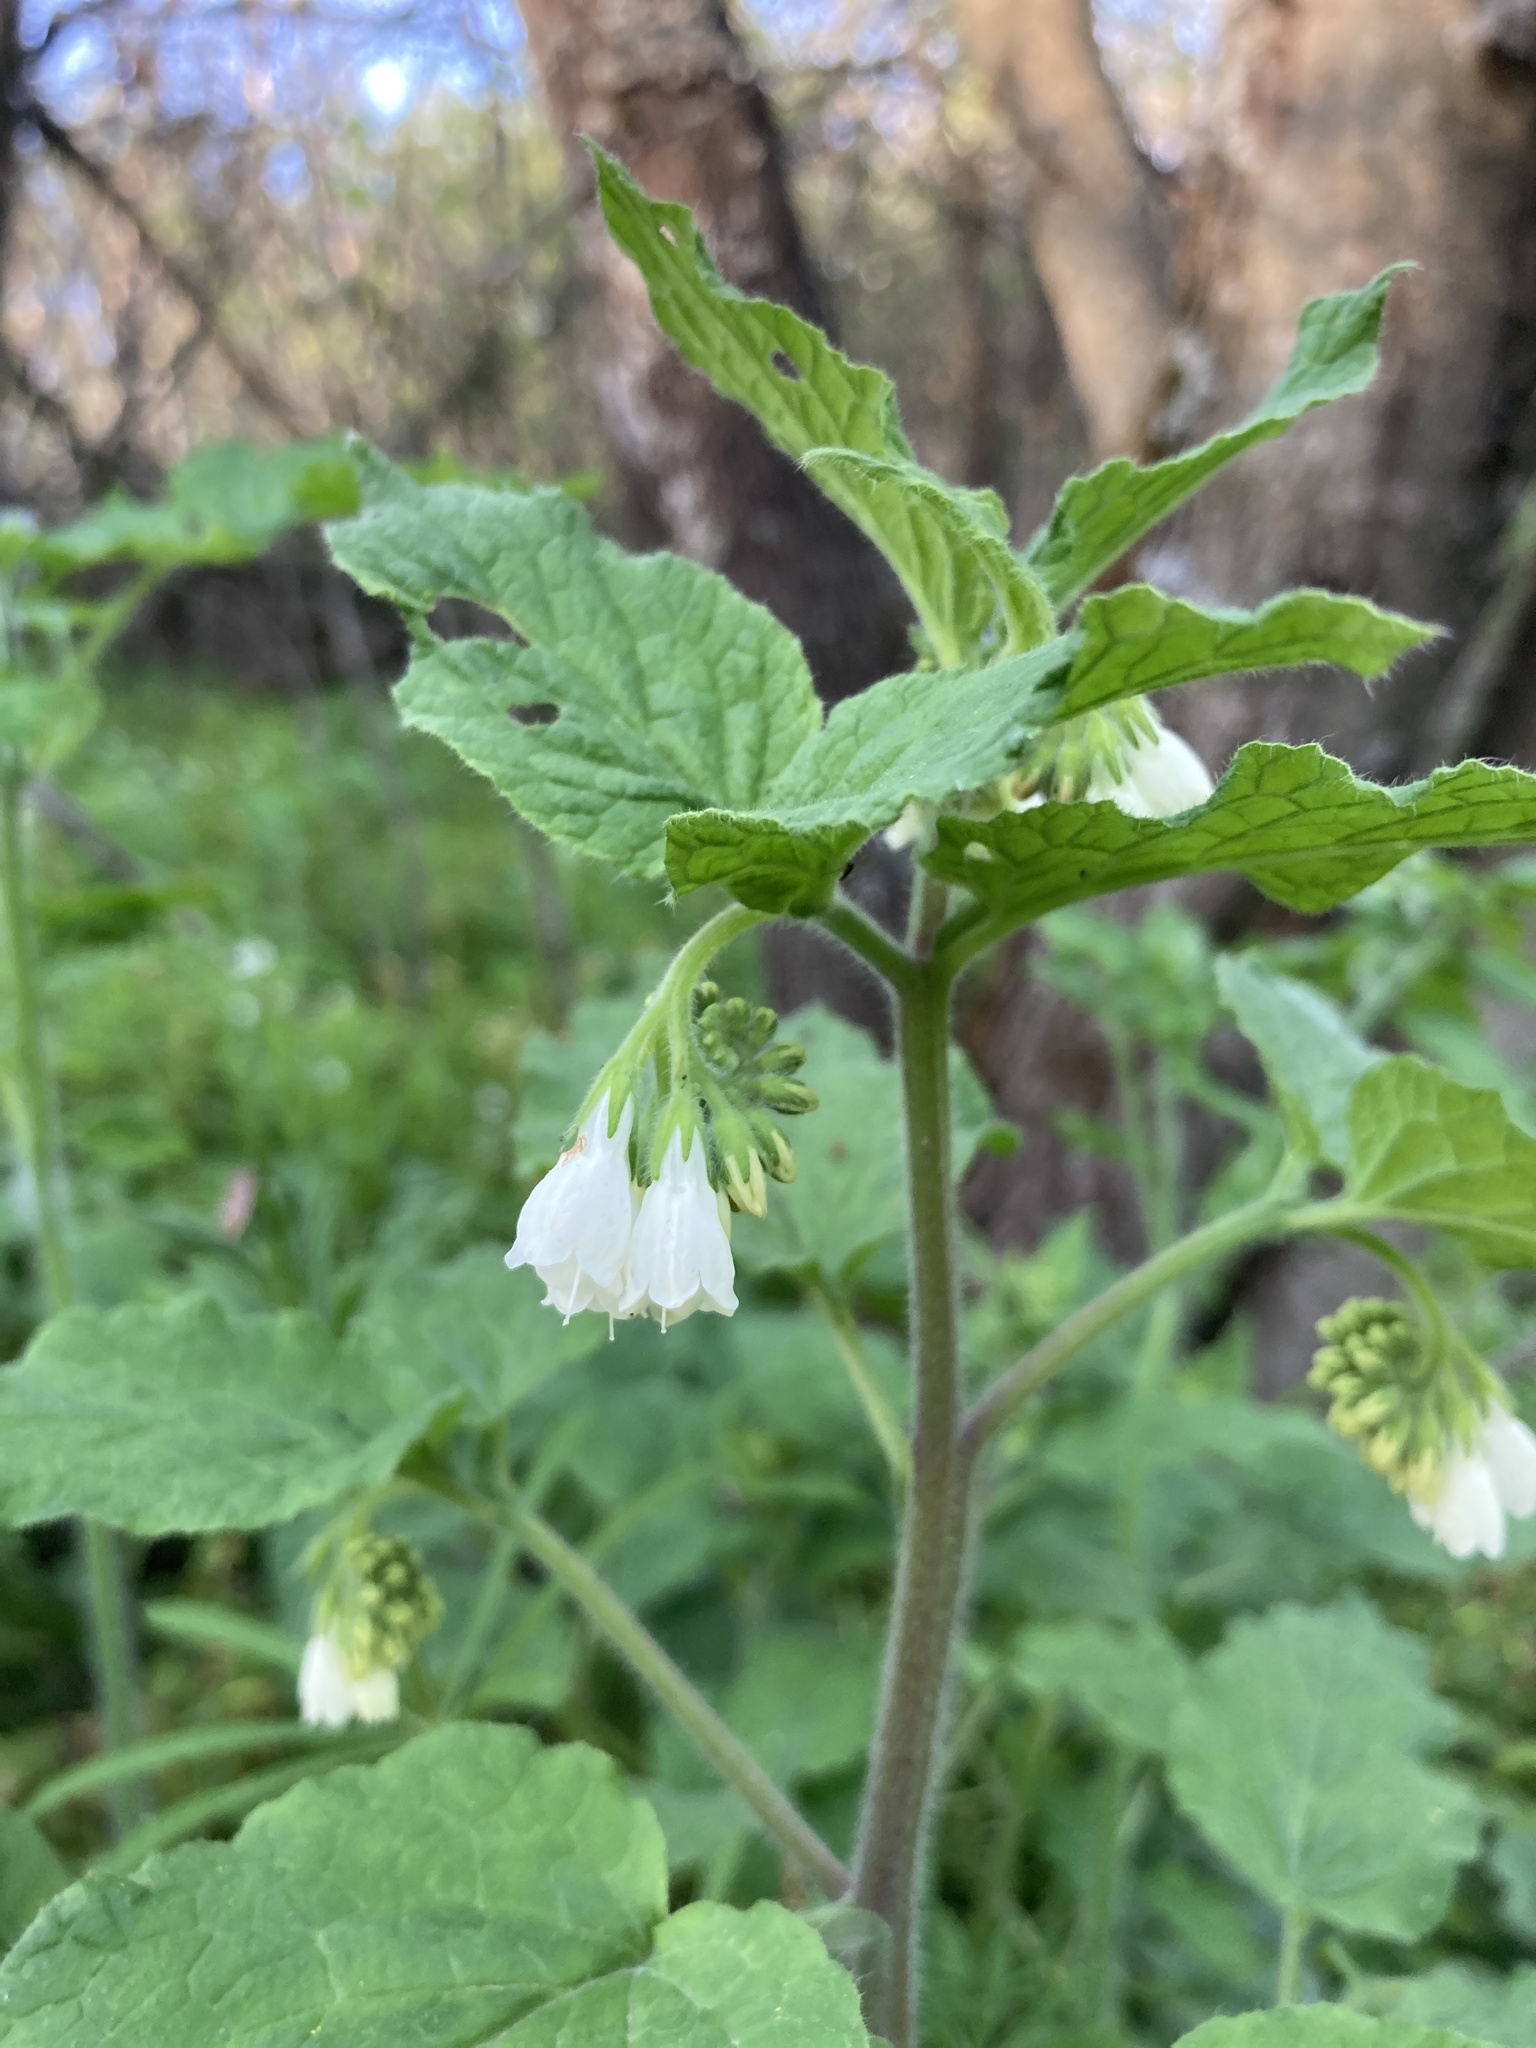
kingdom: Plantae
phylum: Tracheophyta
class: Magnoliopsida
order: Boraginales
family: Boraginaceae
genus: Symphytum
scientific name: Symphytum tauricum
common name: Crimean comfrey
